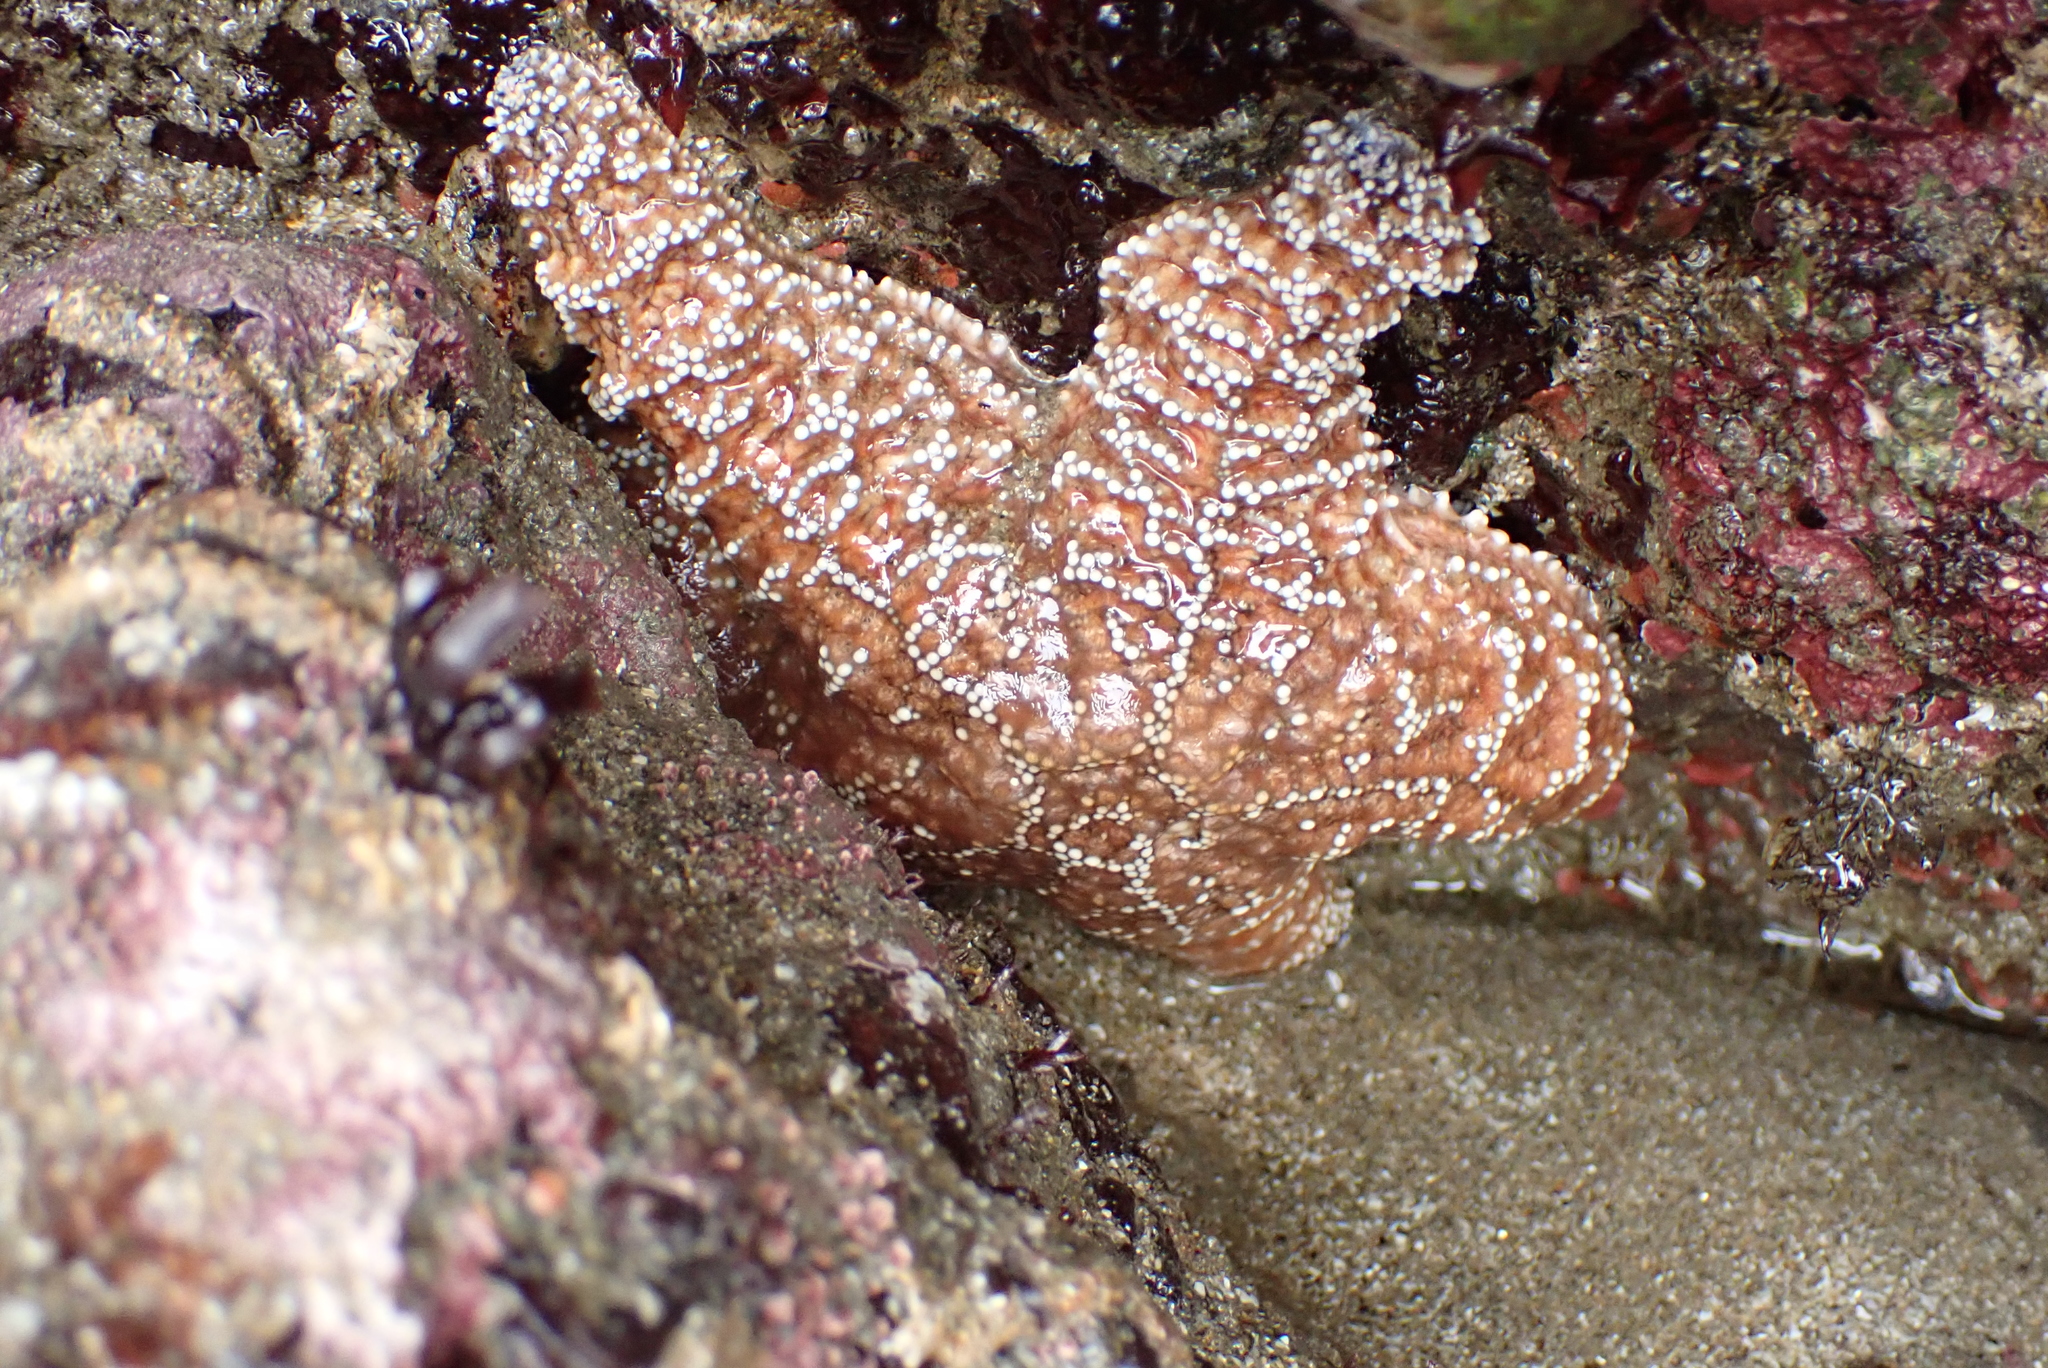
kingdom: Animalia
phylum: Echinodermata
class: Asteroidea
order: Forcipulatida
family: Asteriidae
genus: Pisaster
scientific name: Pisaster ochraceus
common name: Ochre stars
